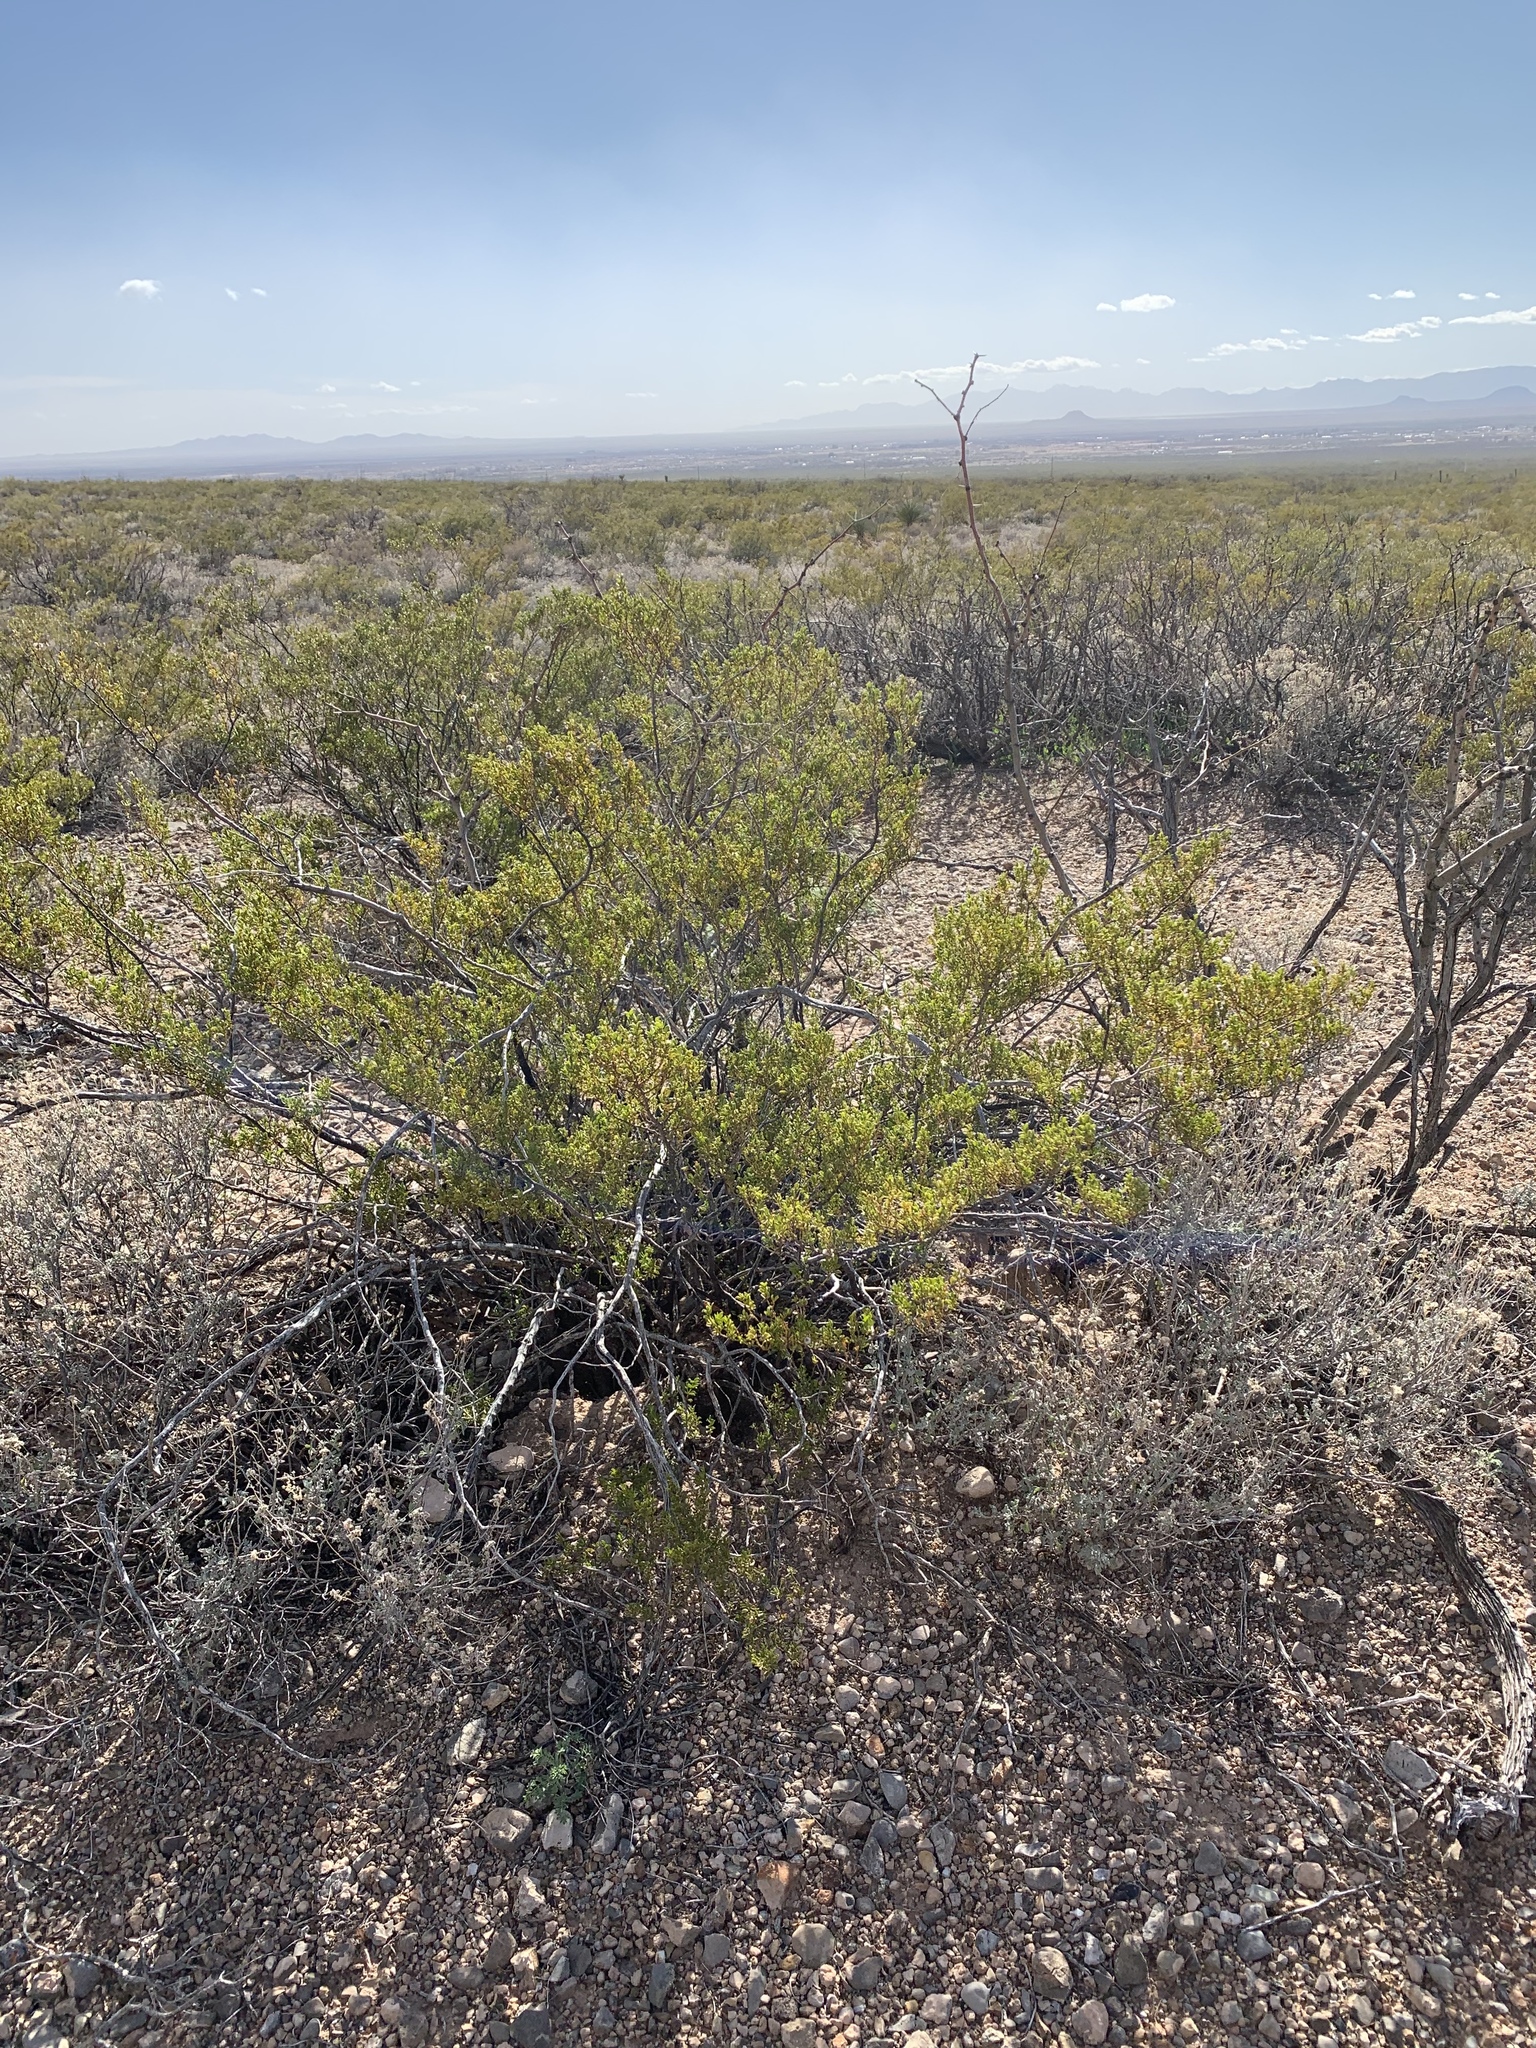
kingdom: Plantae
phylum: Tracheophyta
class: Magnoliopsida
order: Zygophyllales
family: Zygophyllaceae
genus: Larrea
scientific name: Larrea tridentata
